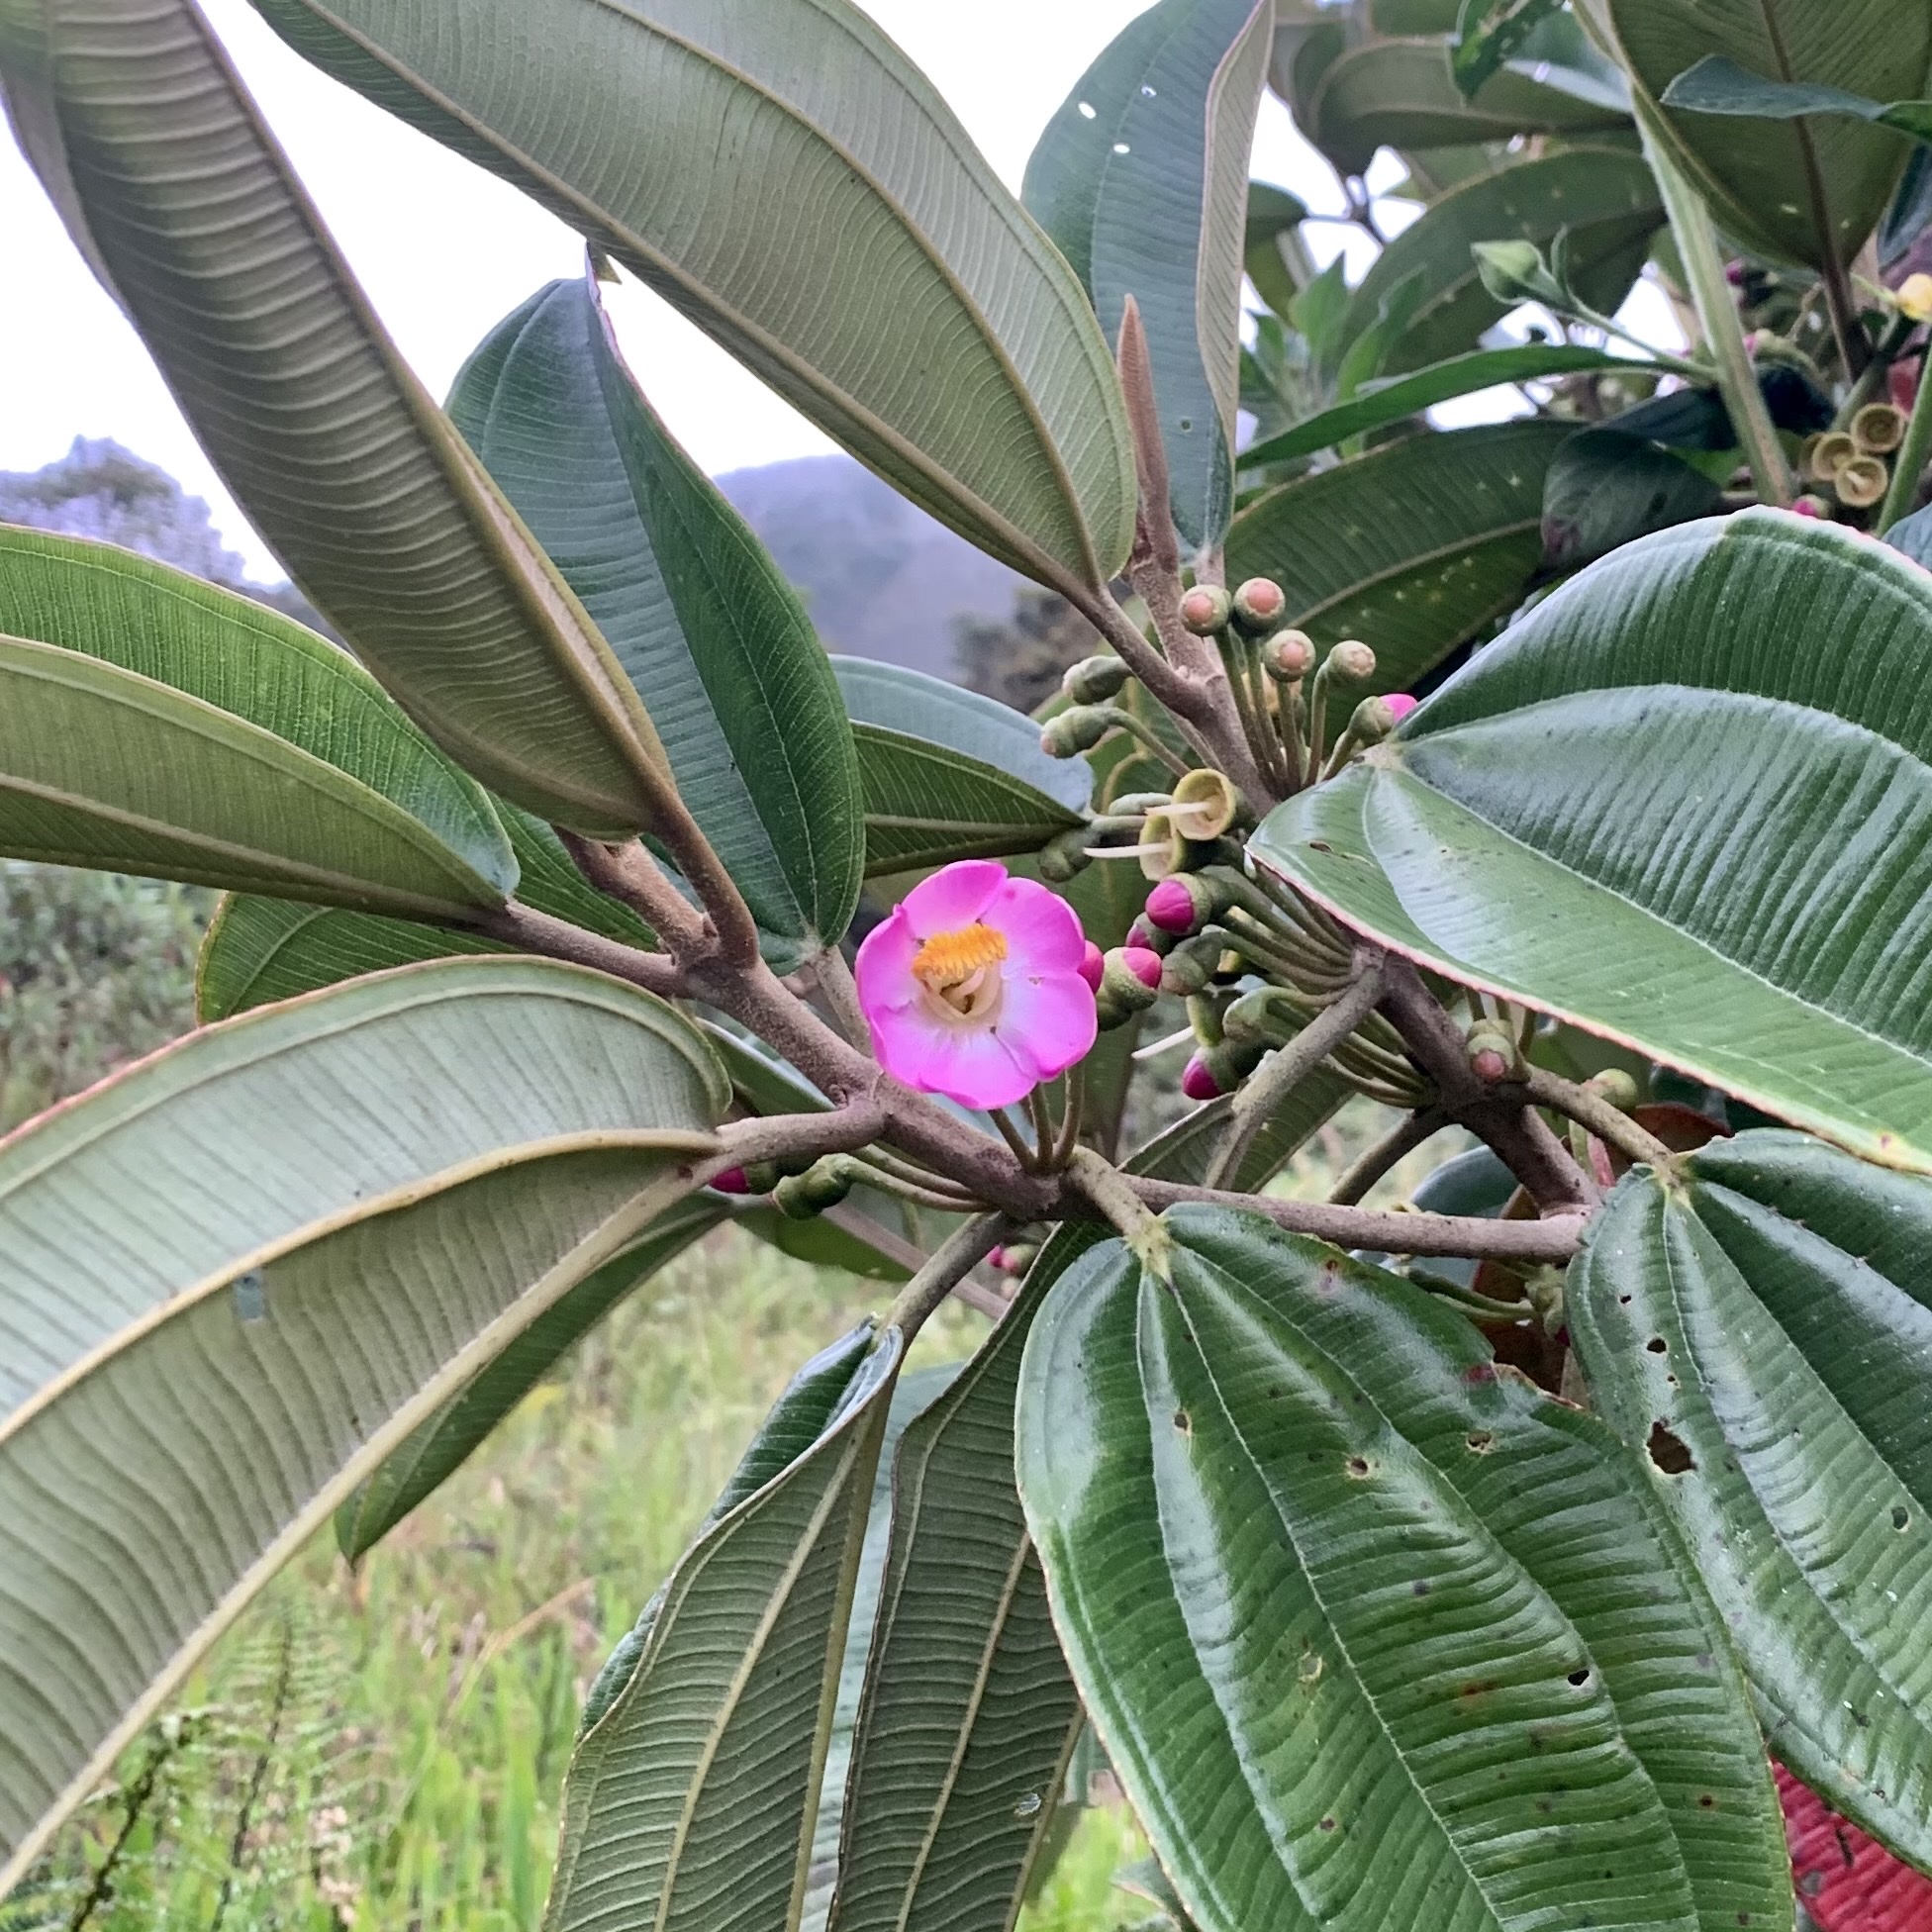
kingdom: Plantae
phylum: Tracheophyta
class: Magnoliopsida
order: Myrtales
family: Melastomataceae
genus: Blakea
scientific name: Blakea multiflora
